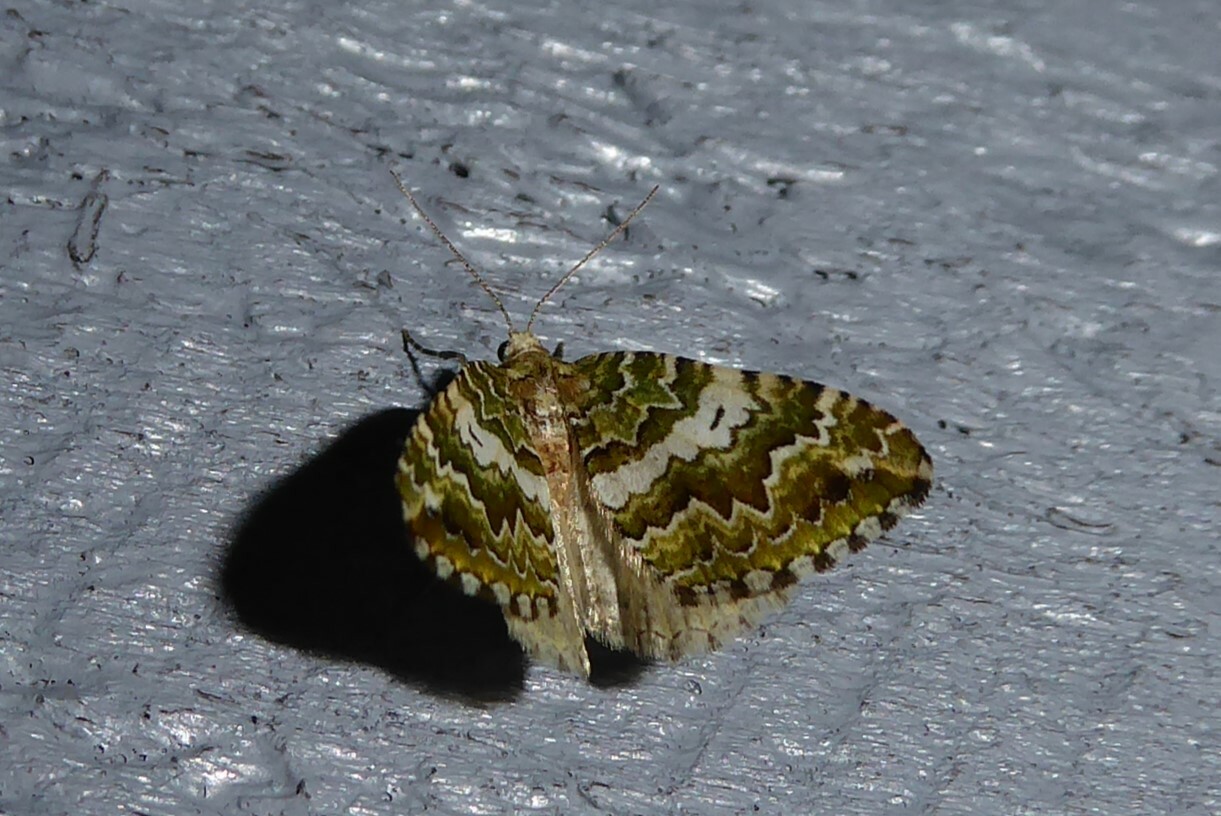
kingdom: Animalia
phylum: Arthropoda
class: Insecta
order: Lepidoptera
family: Geometridae
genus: Asaphodes
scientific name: Asaphodes beata
